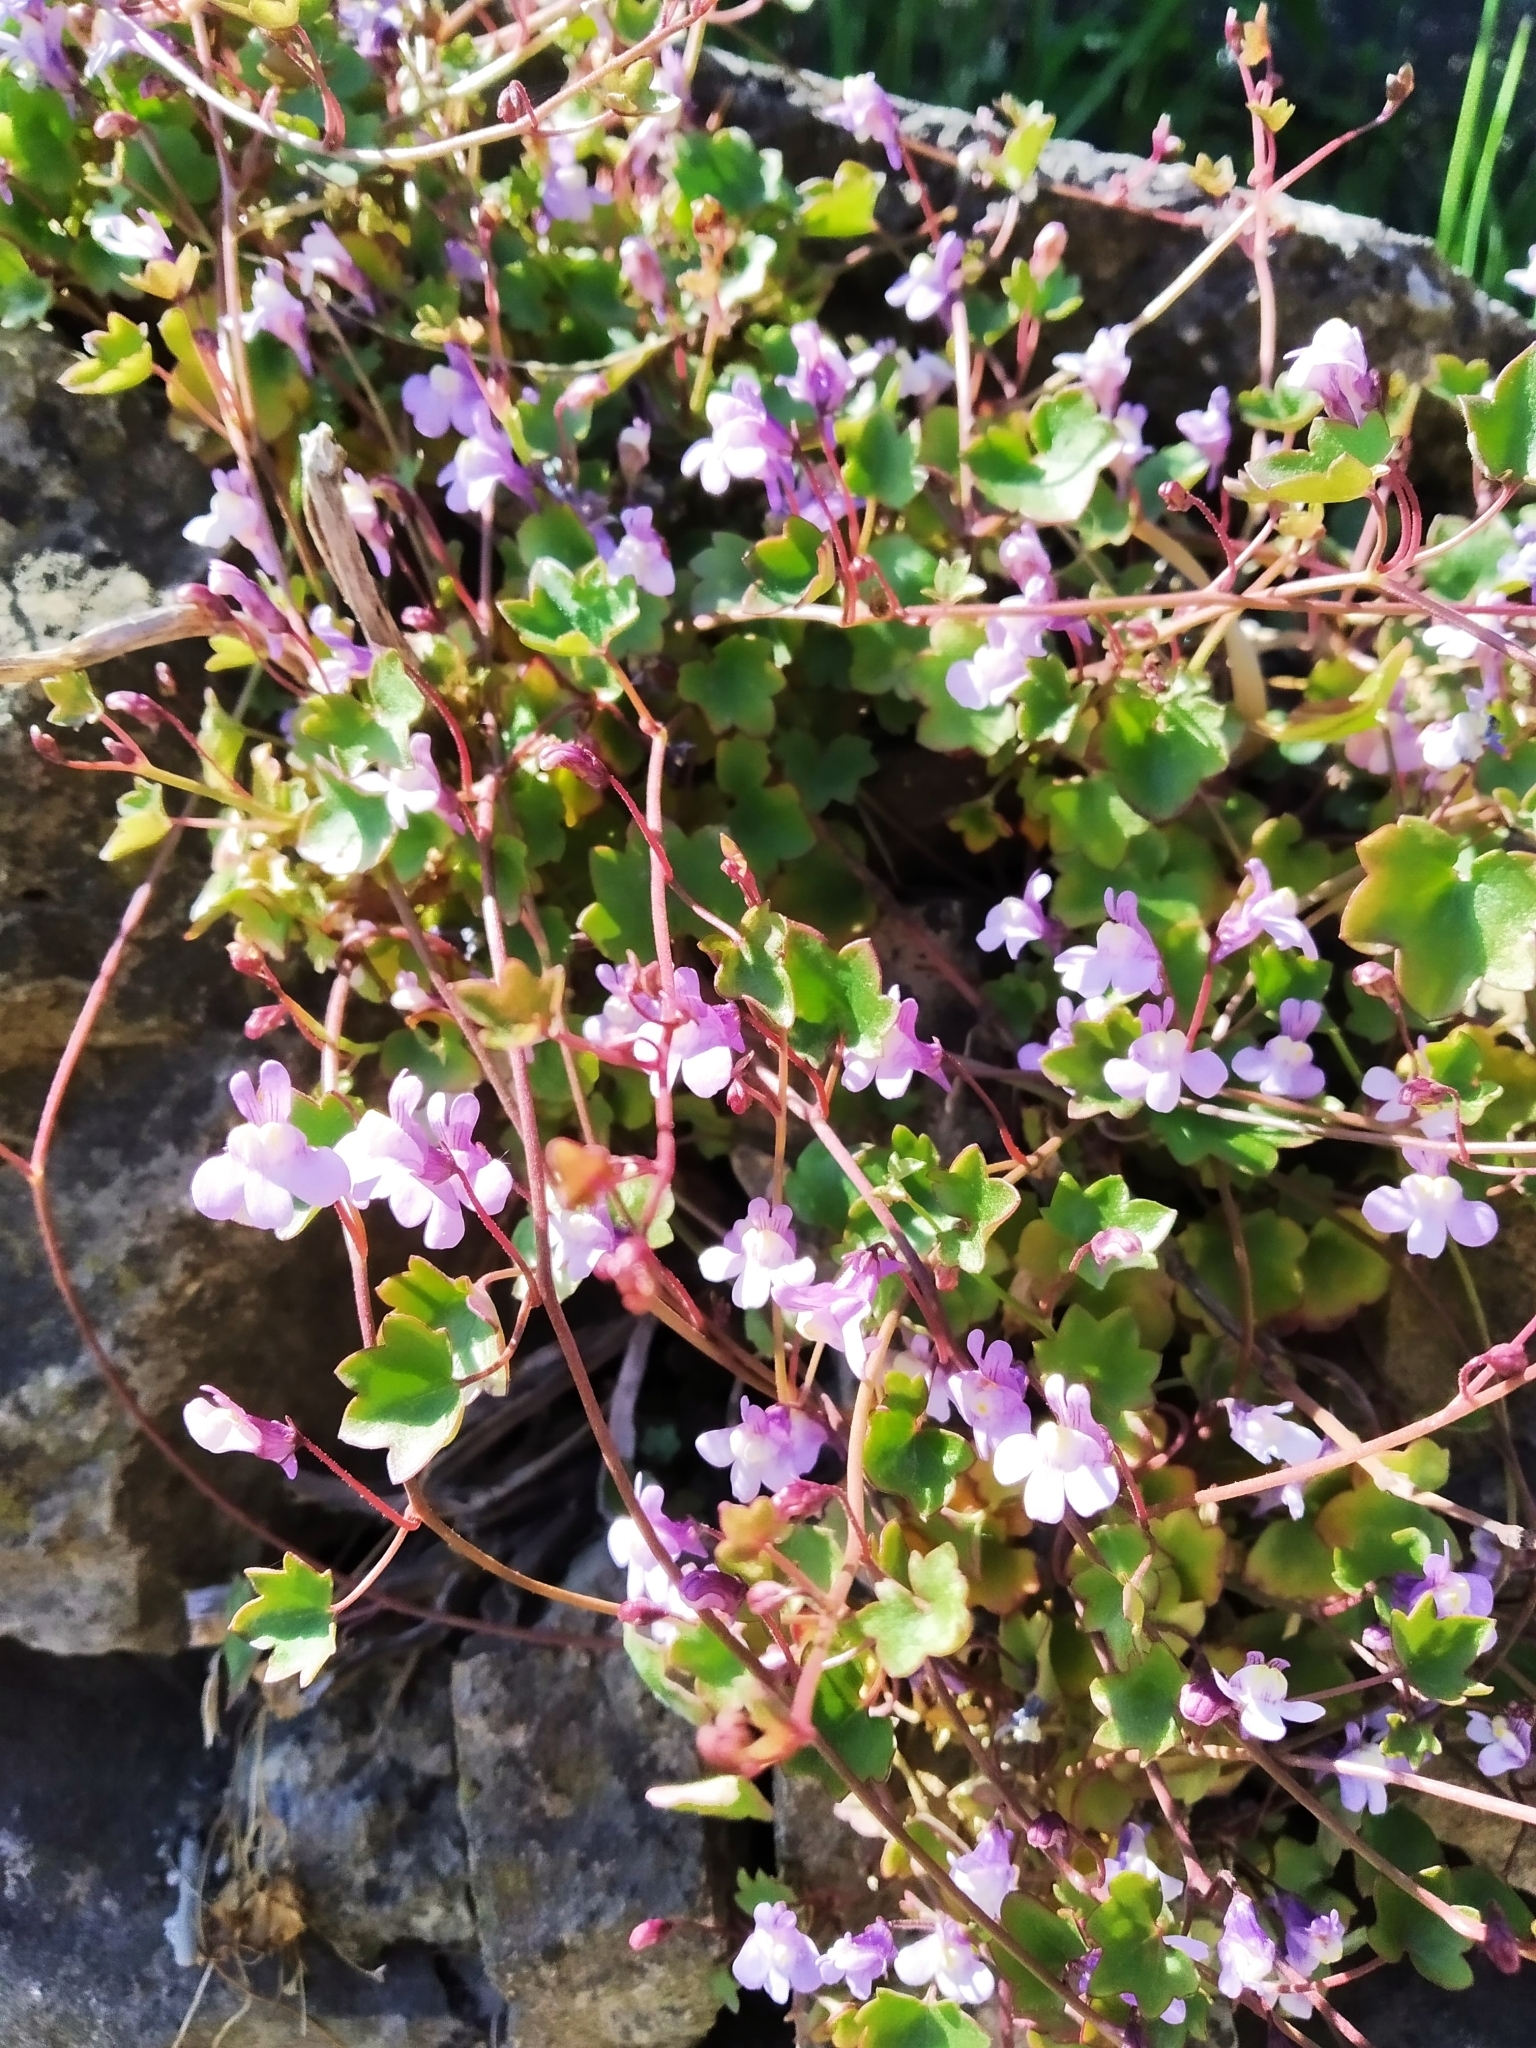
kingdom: Plantae
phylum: Tracheophyta
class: Magnoliopsida
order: Lamiales
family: Plantaginaceae
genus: Cymbalaria
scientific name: Cymbalaria muralis
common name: Ivy-leaved toadflax
